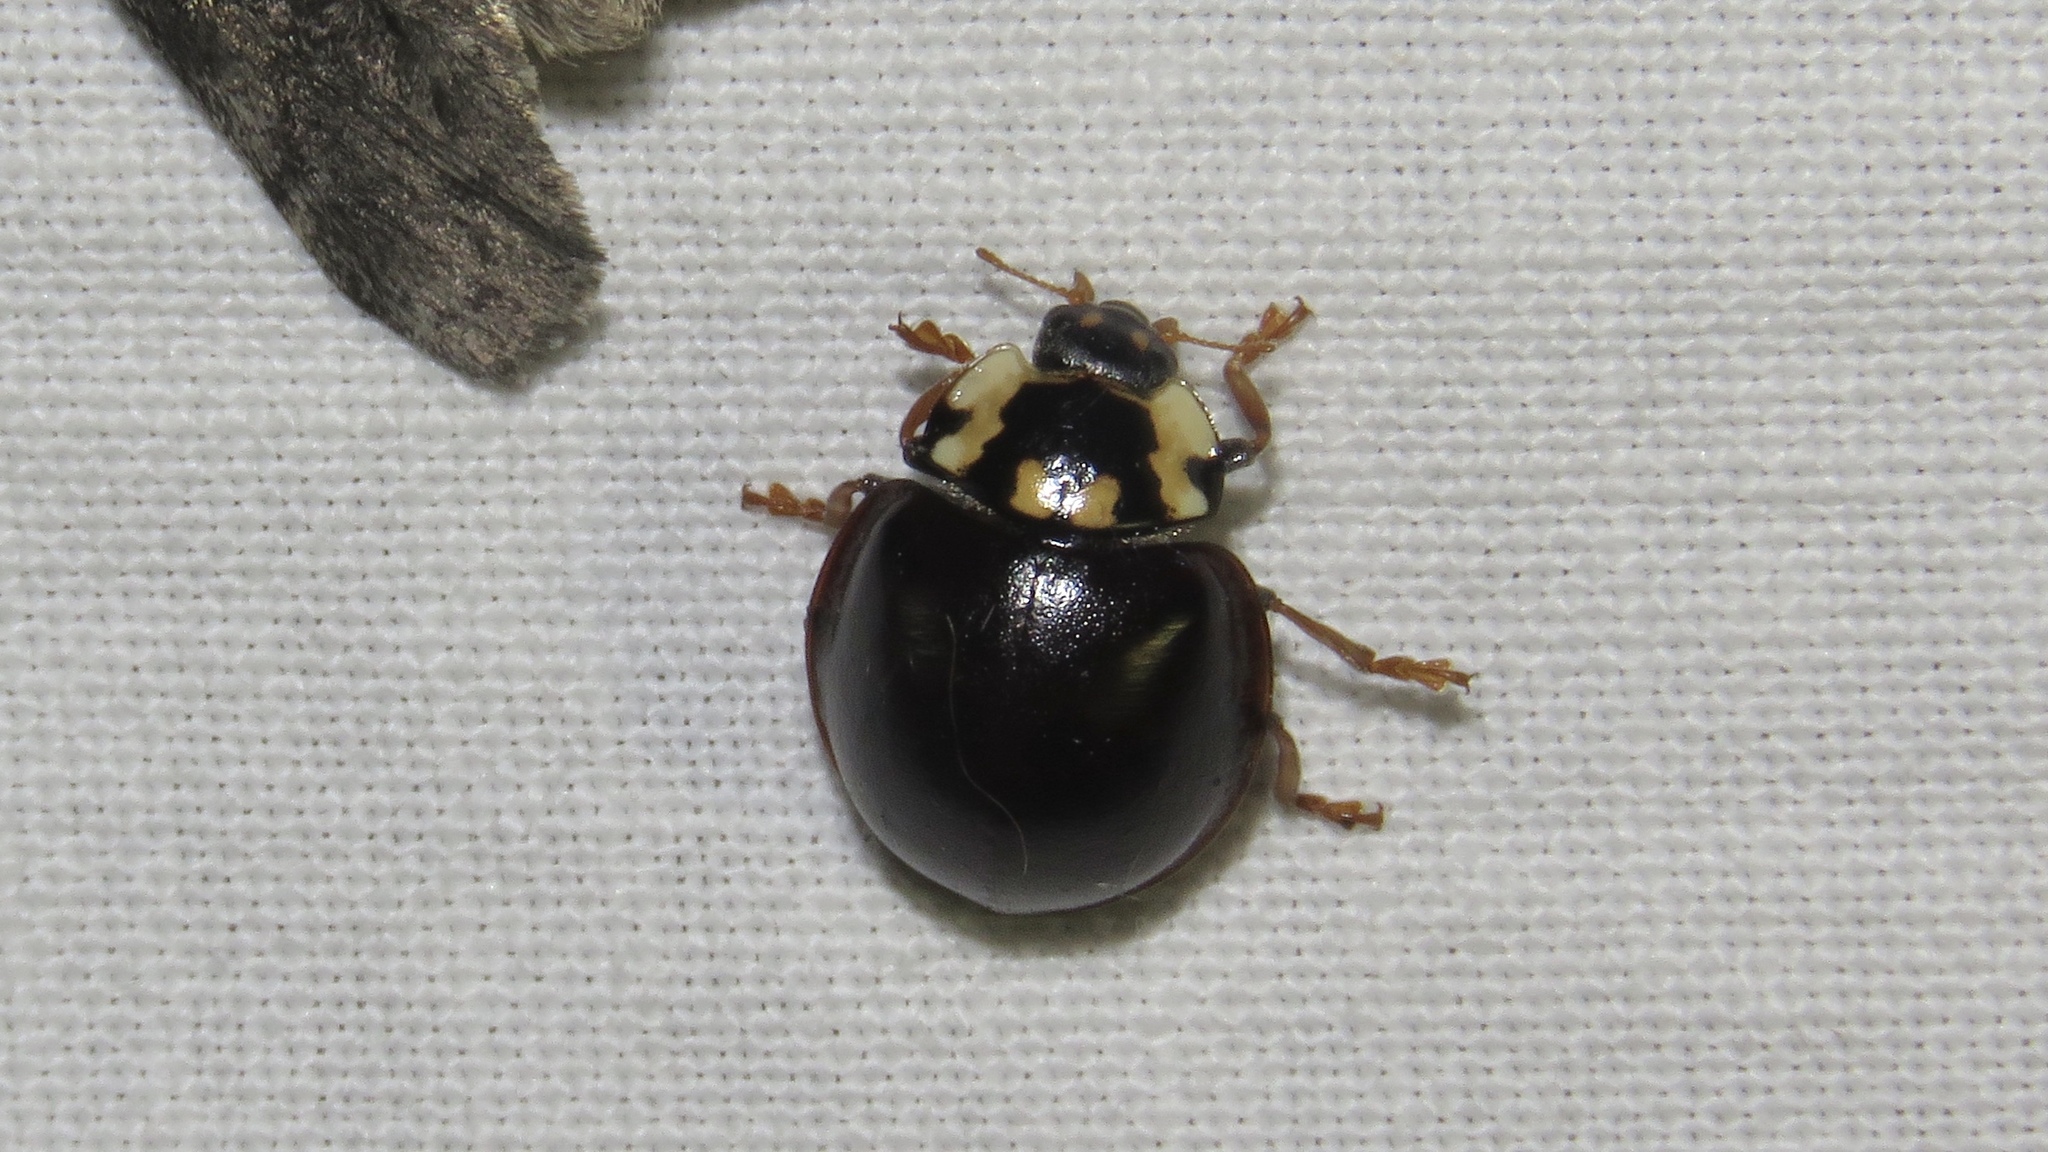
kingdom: Animalia
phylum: Arthropoda
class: Insecta
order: Coleoptera
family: Coccinellidae
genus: Anatis
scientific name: Anatis labiculata
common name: Fifteen-spotted lady beetle
